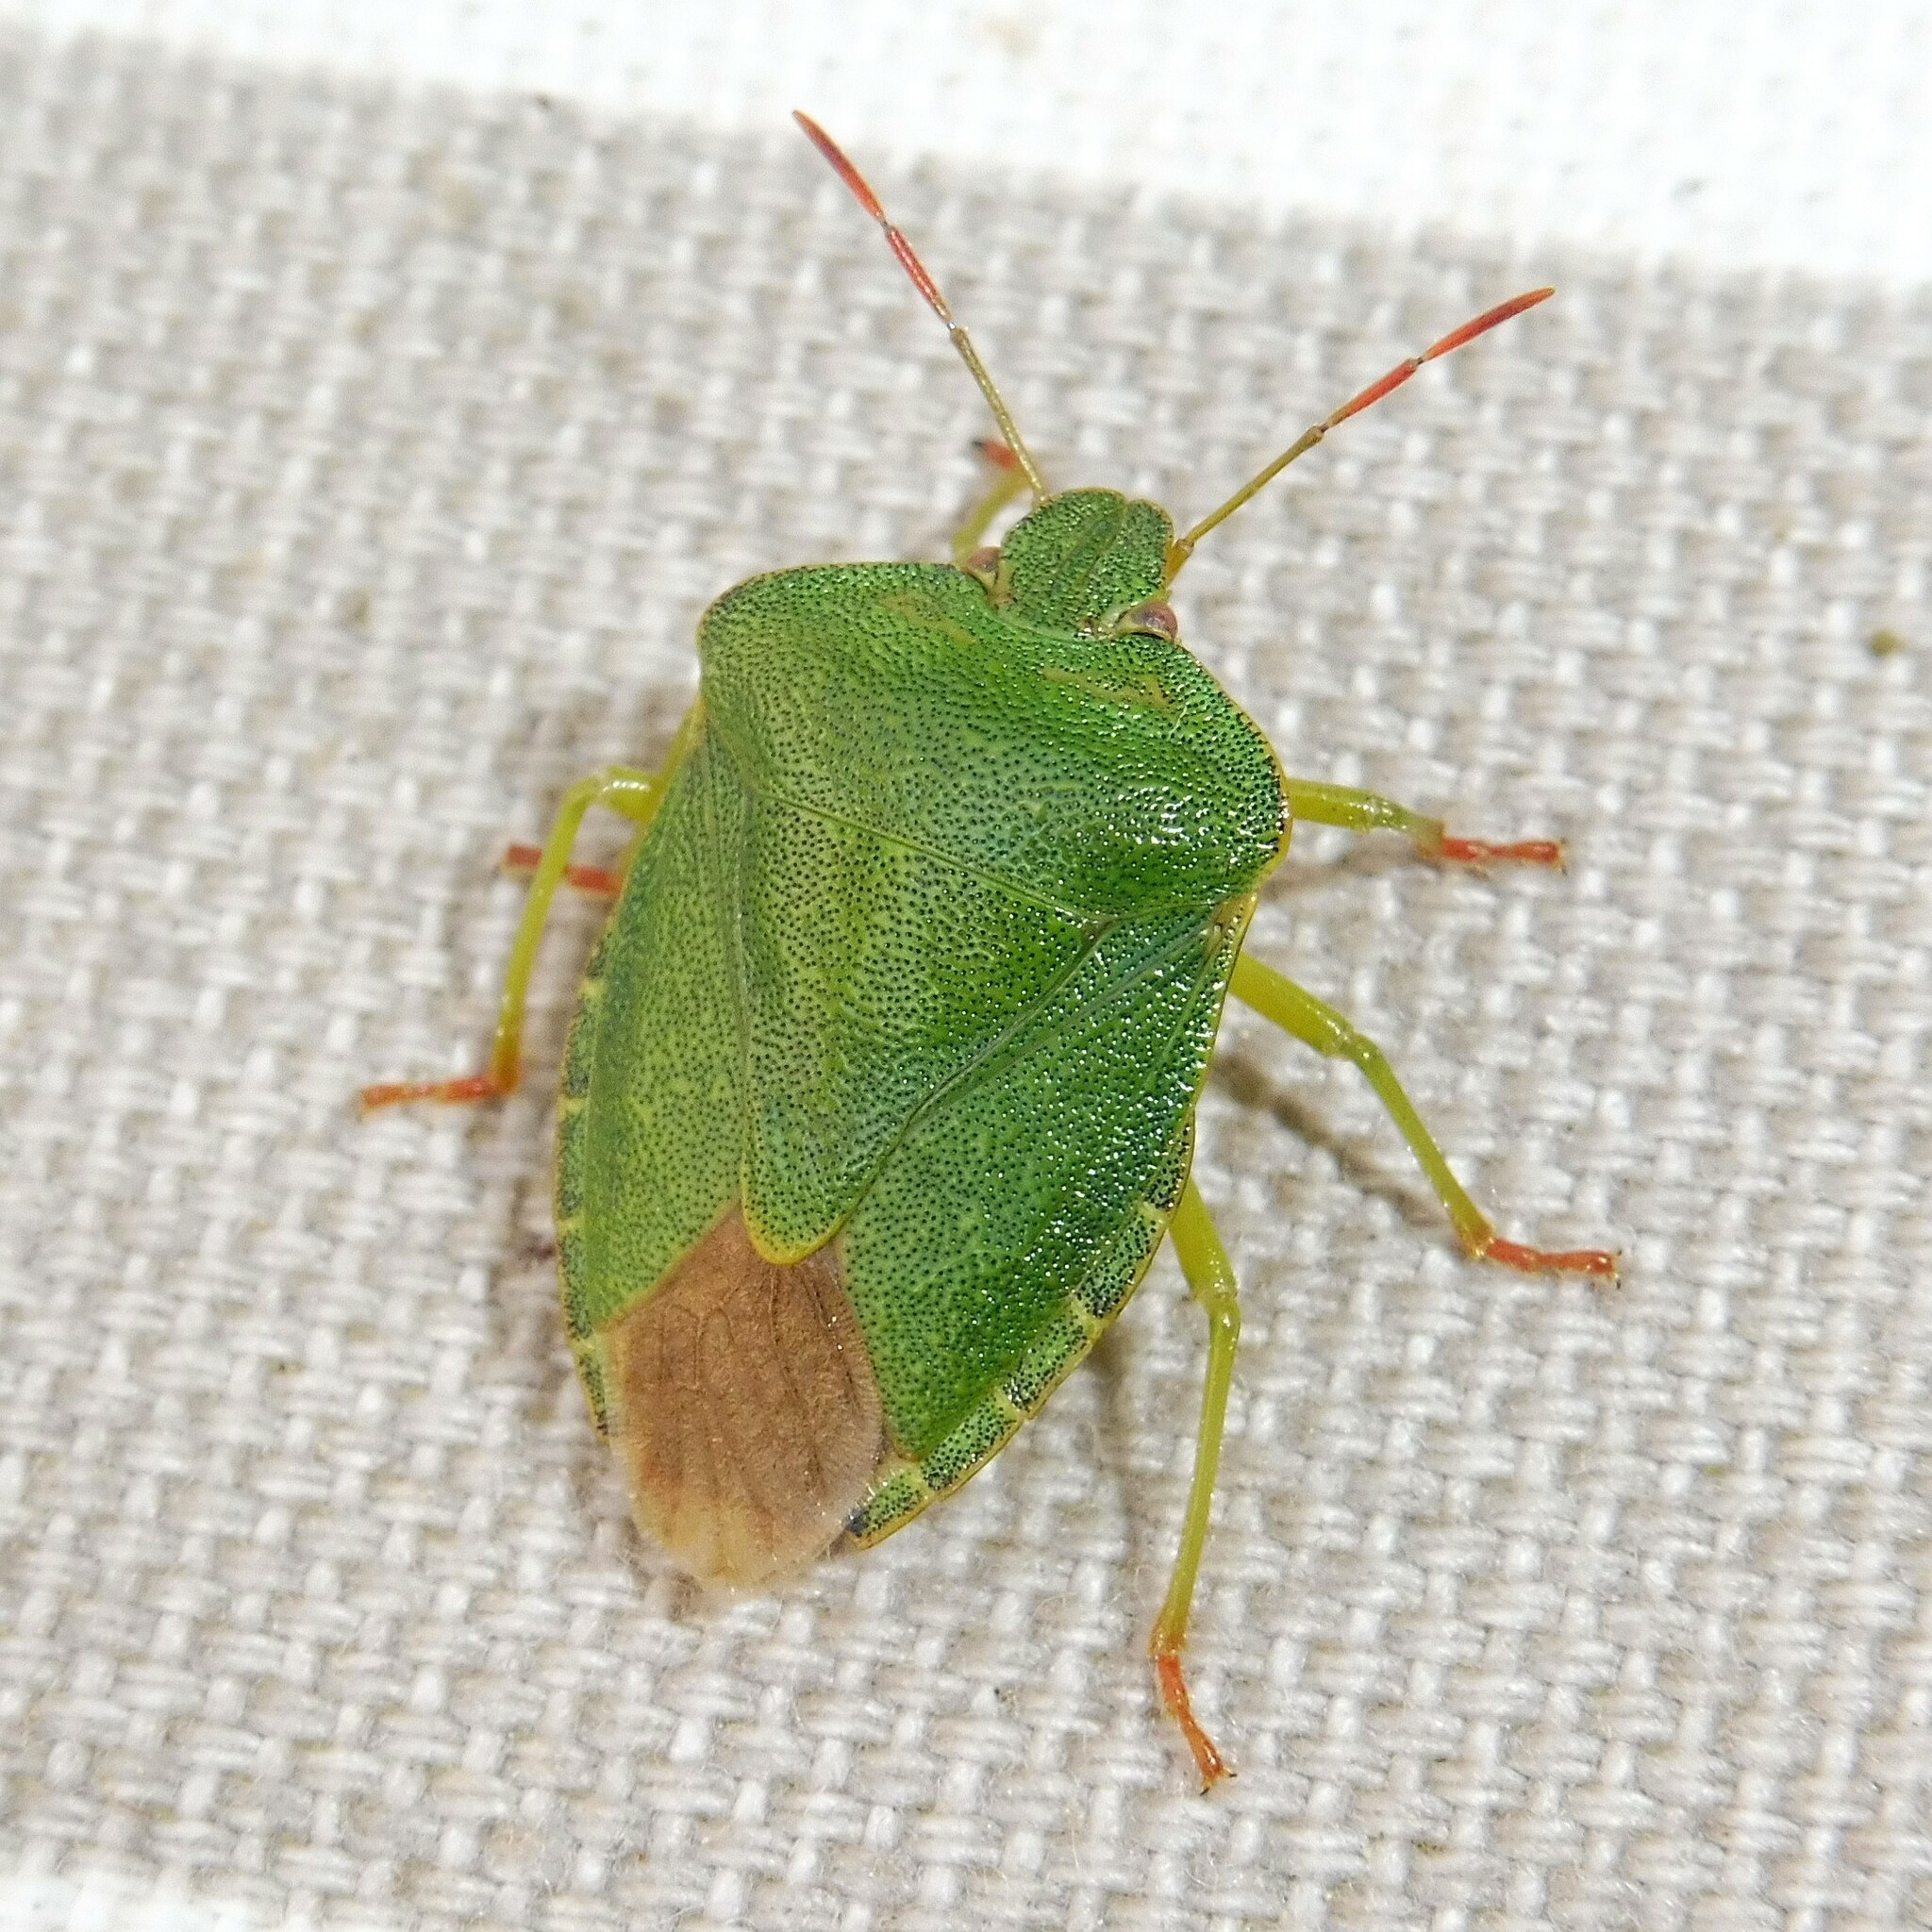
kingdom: Animalia
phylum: Arthropoda
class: Insecta
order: Hemiptera
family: Pentatomidae
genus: Palomena
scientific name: Palomena prasina
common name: Green shieldbug
